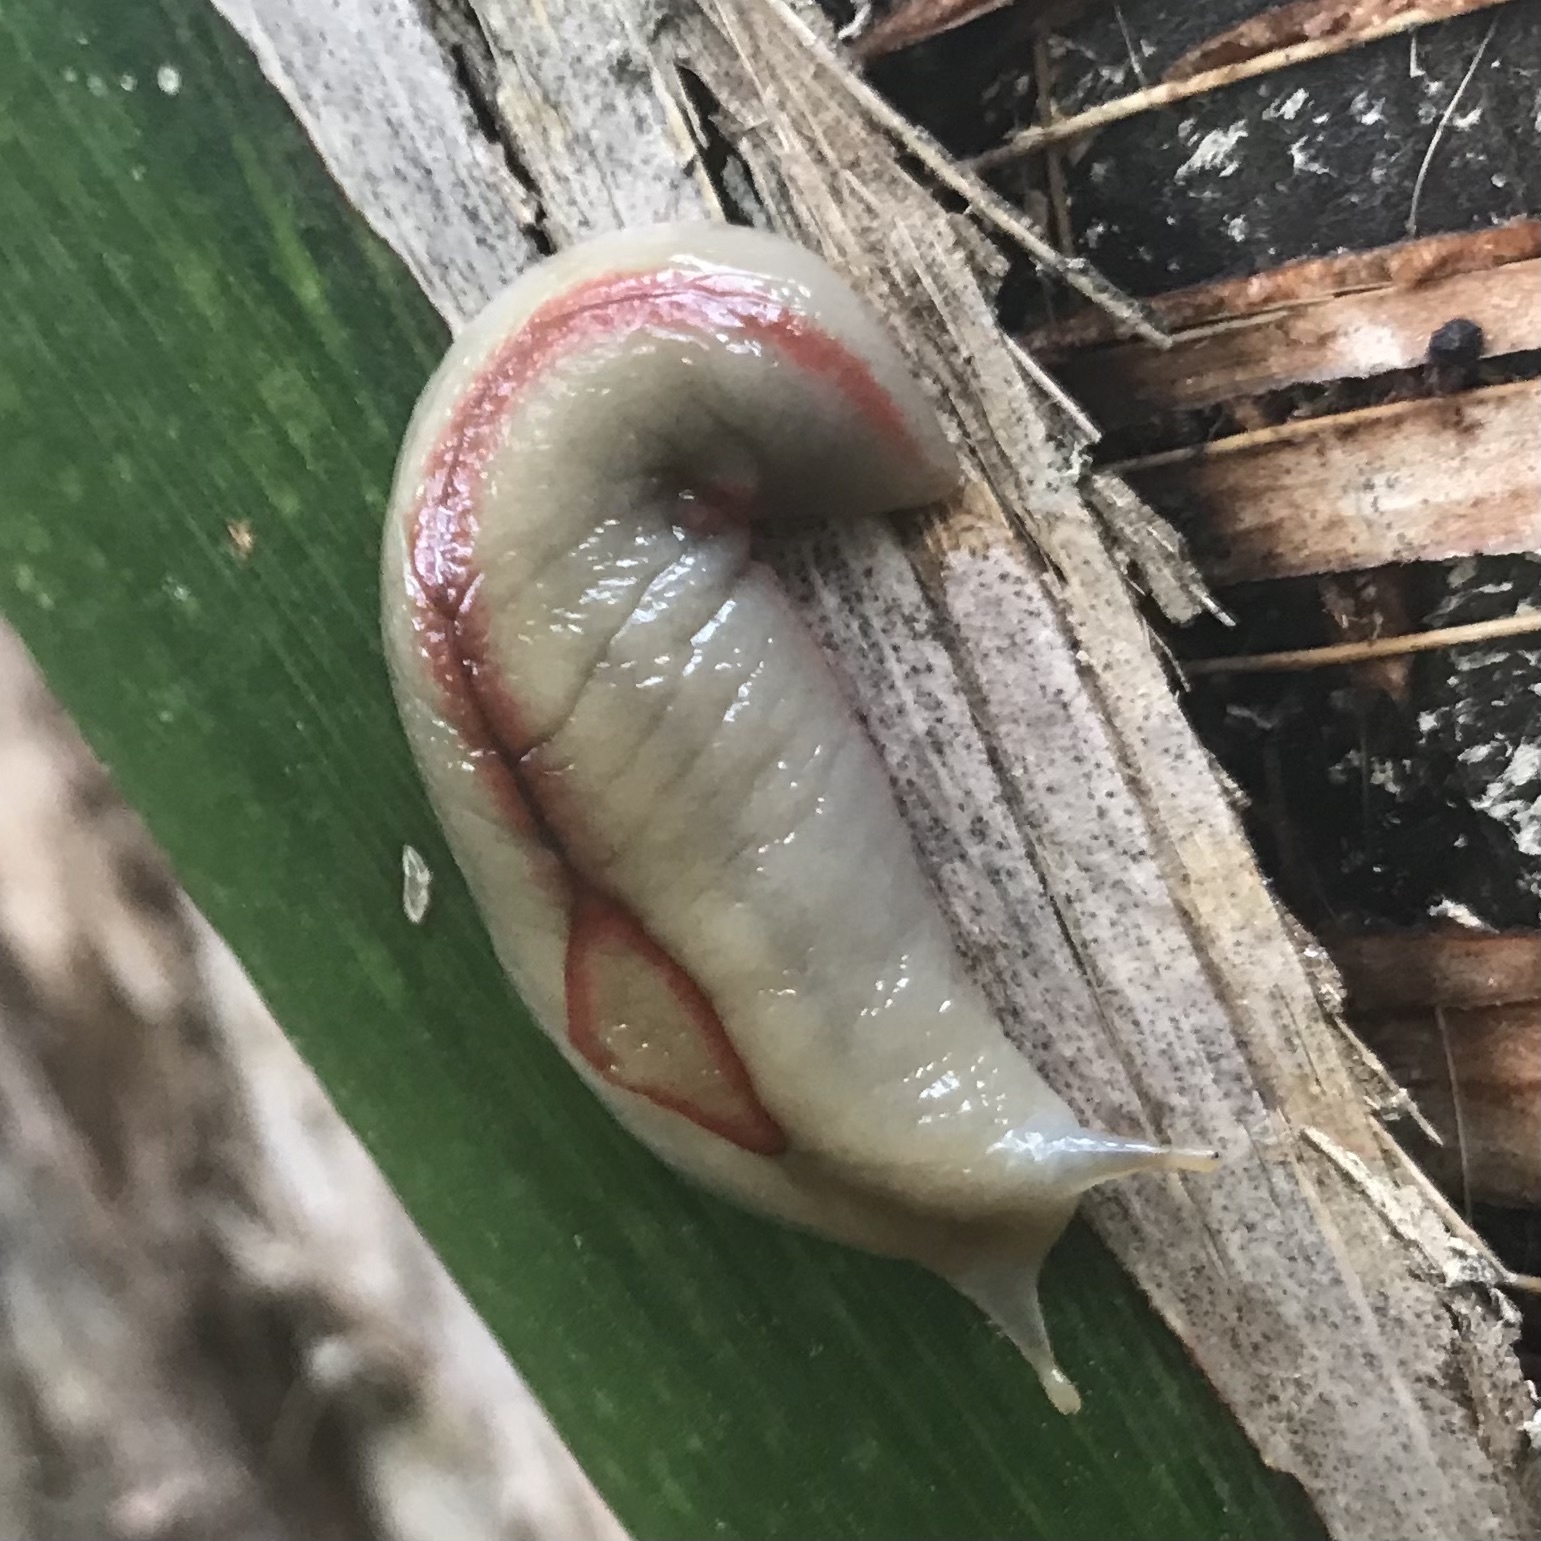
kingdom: Animalia
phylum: Mollusca
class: Gastropoda
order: Stylommatophora
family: Athoracophoridae
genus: Triboniophorus
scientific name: Triboniophorus graeffei
